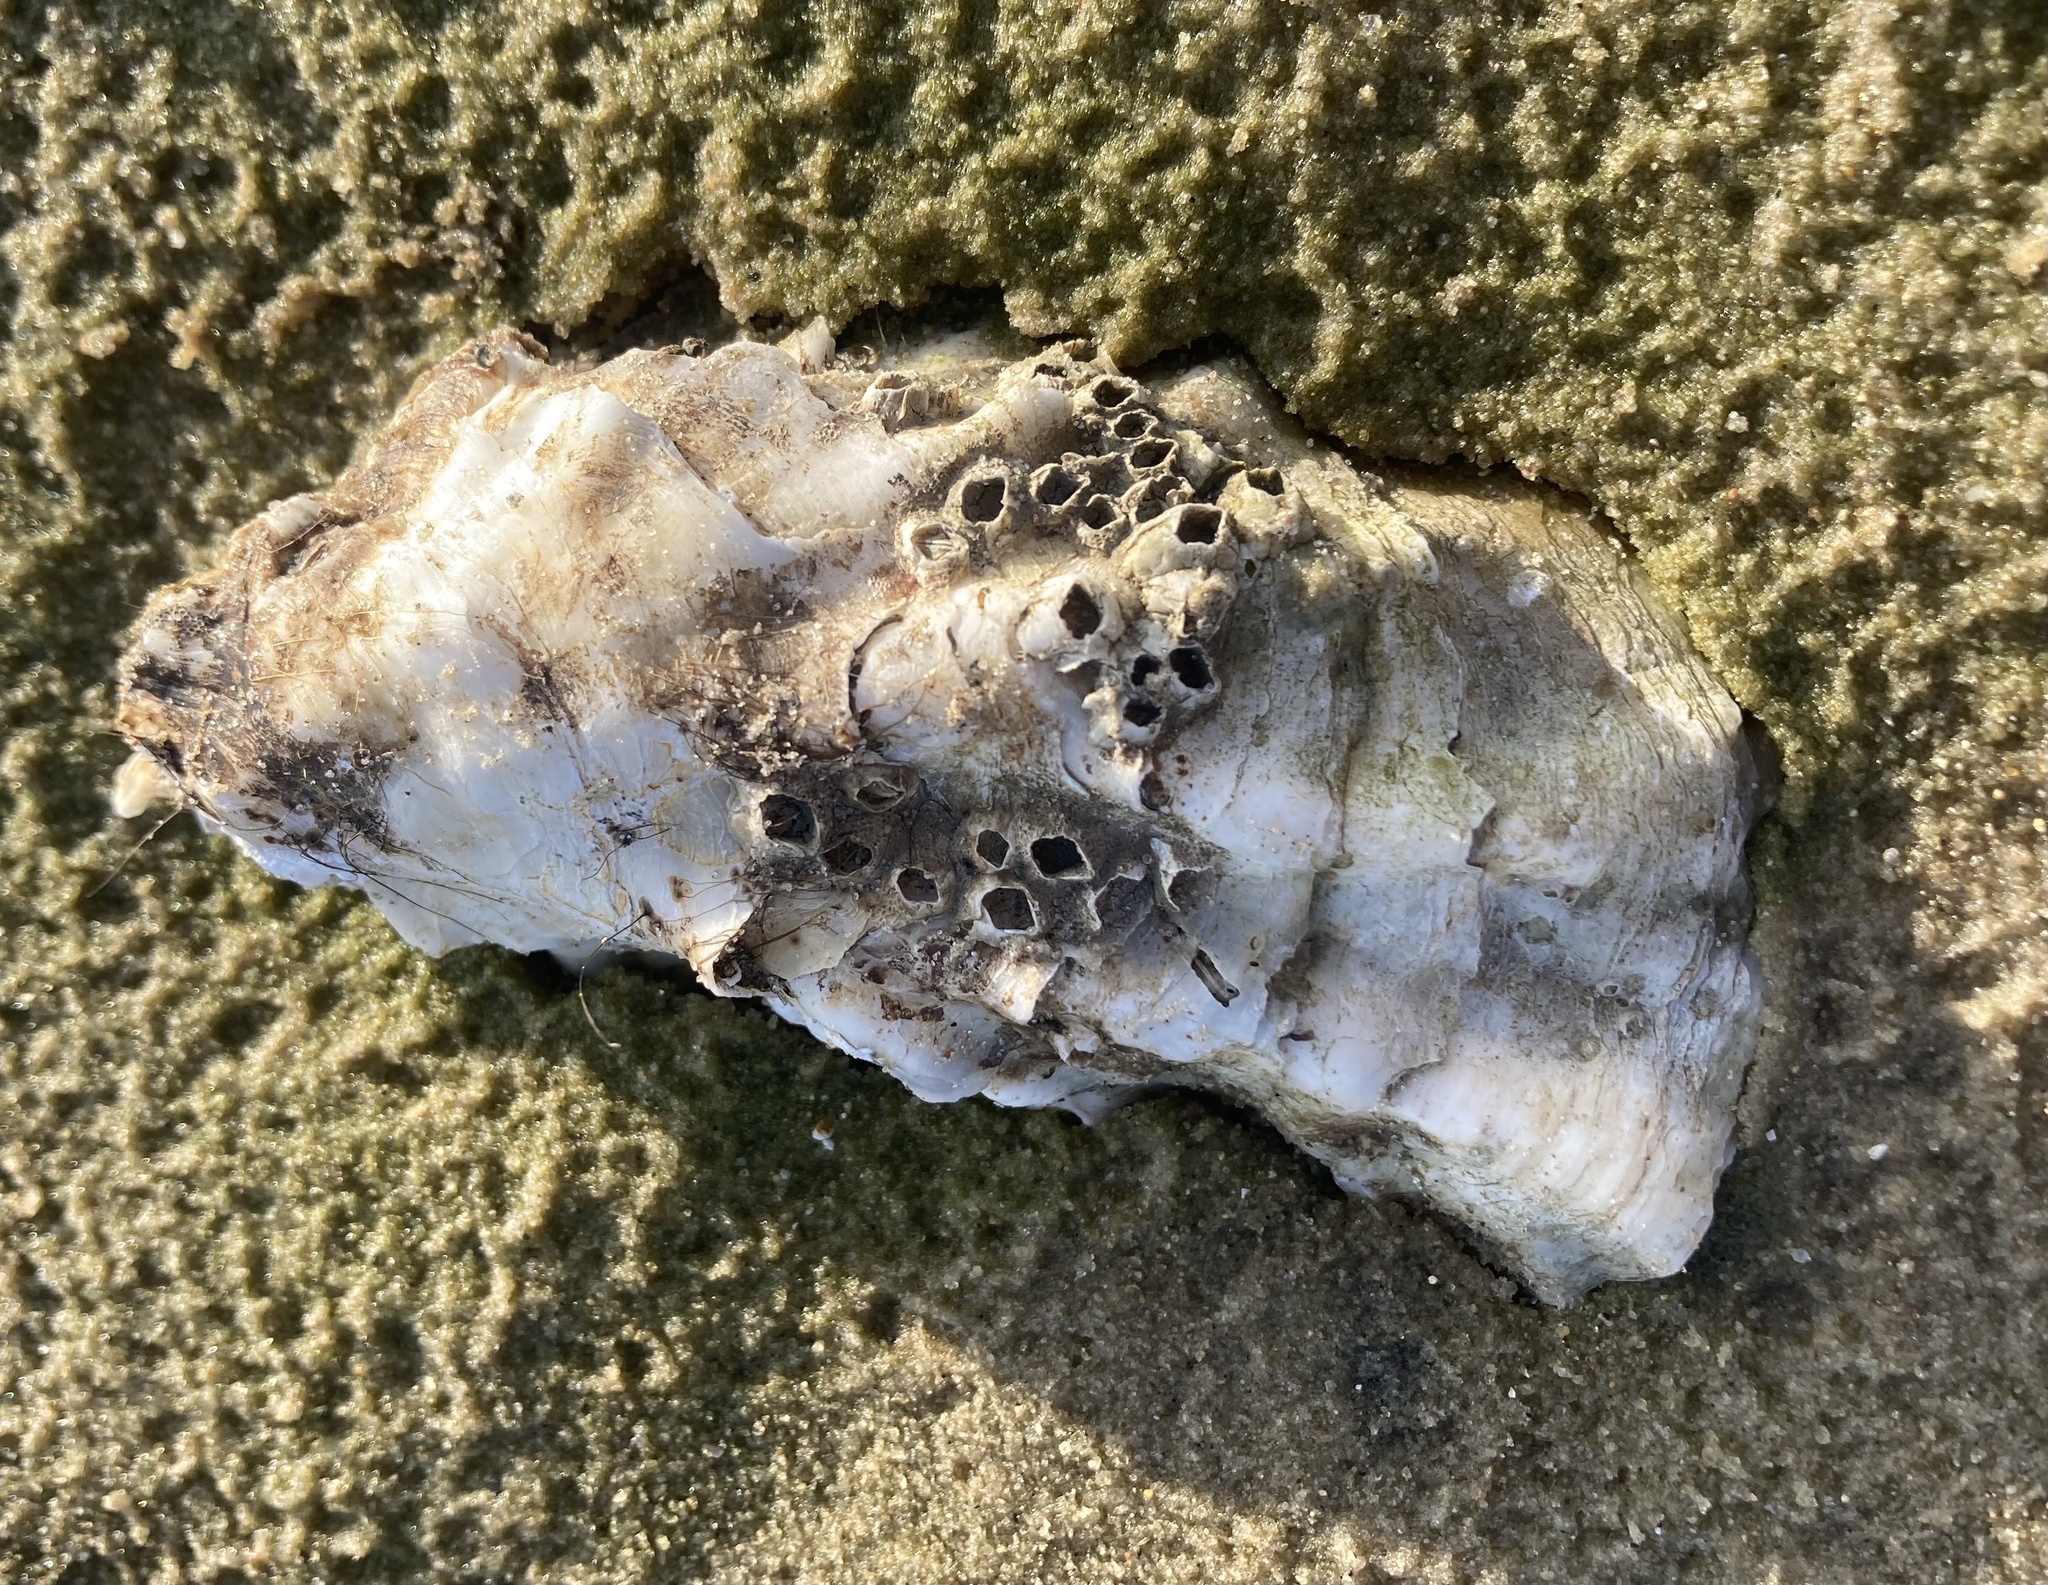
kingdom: Animalia
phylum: Mollusca
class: Bivalvia
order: Ostreida
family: Ostreidae
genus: Magallana
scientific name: Magallana gigas
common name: Pacific oyster
